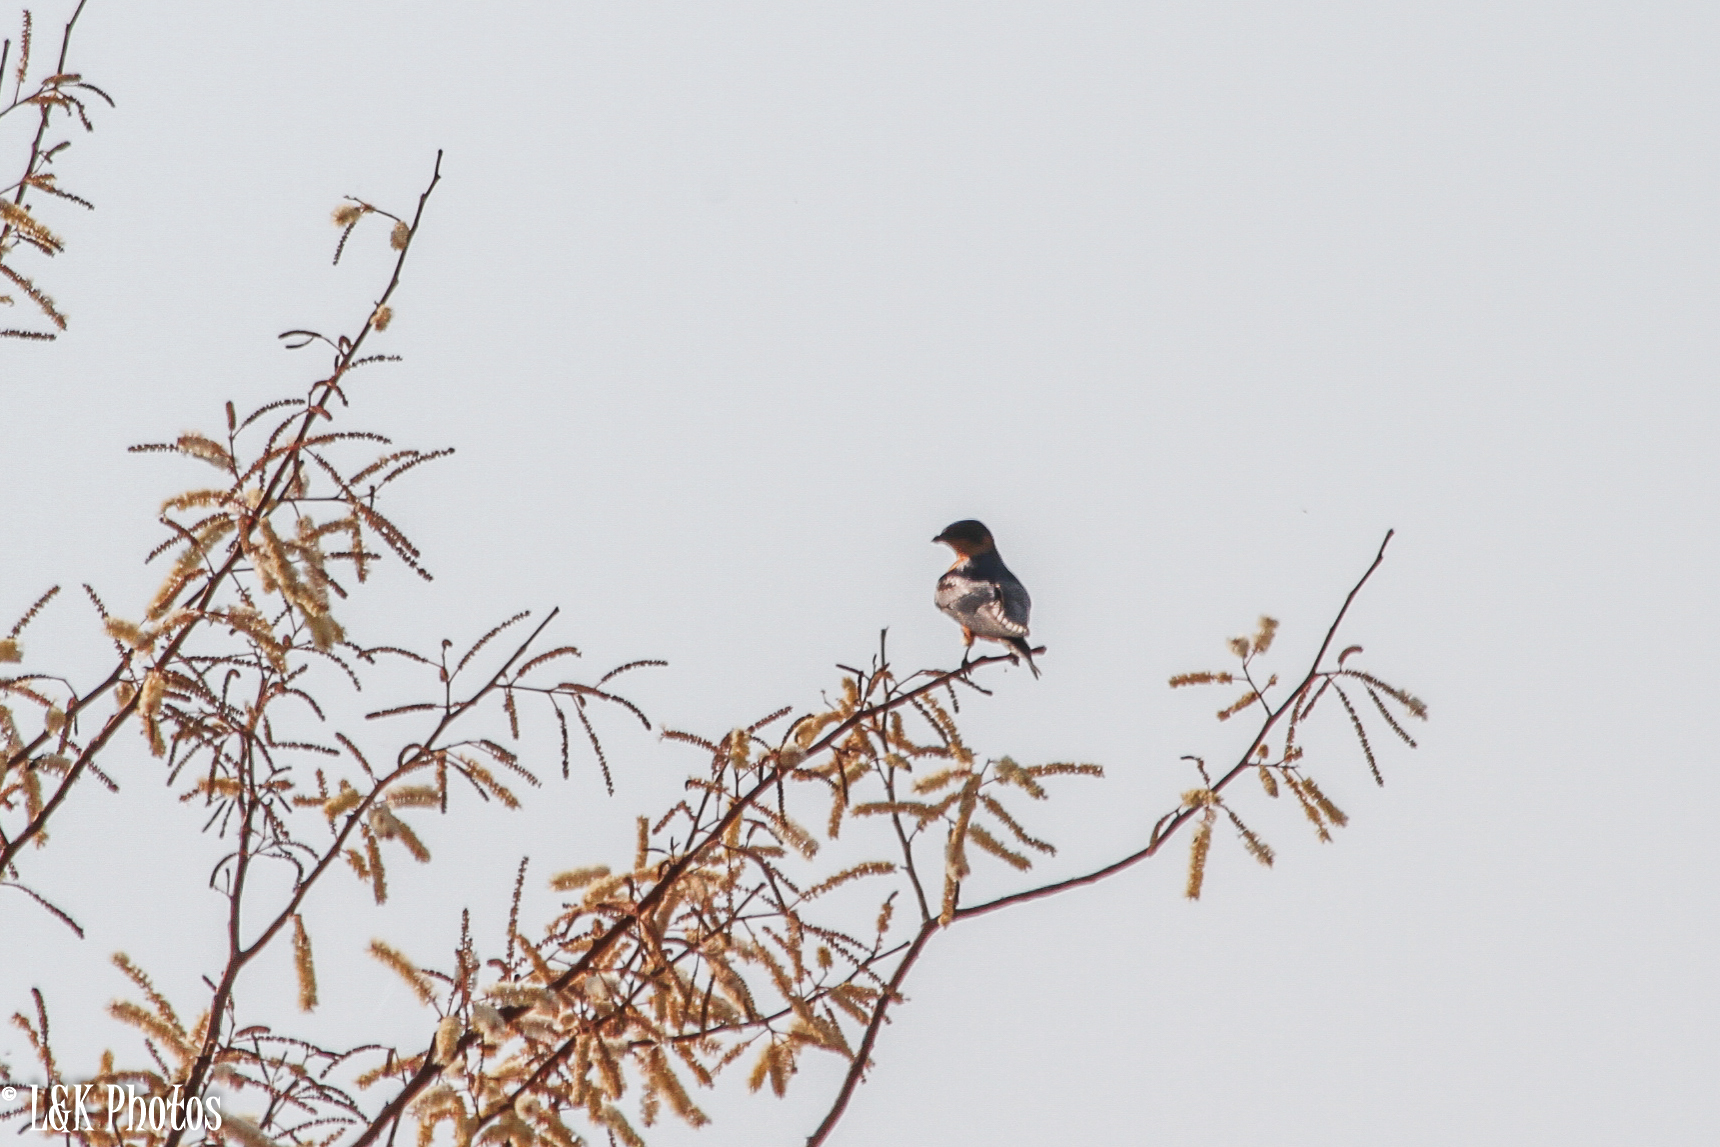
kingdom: Animalia
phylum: Chordata
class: Aves
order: Passeriformes
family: Hirundinidae
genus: Cecropis
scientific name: Cecropis semirufa
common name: Red-breasted swallow
